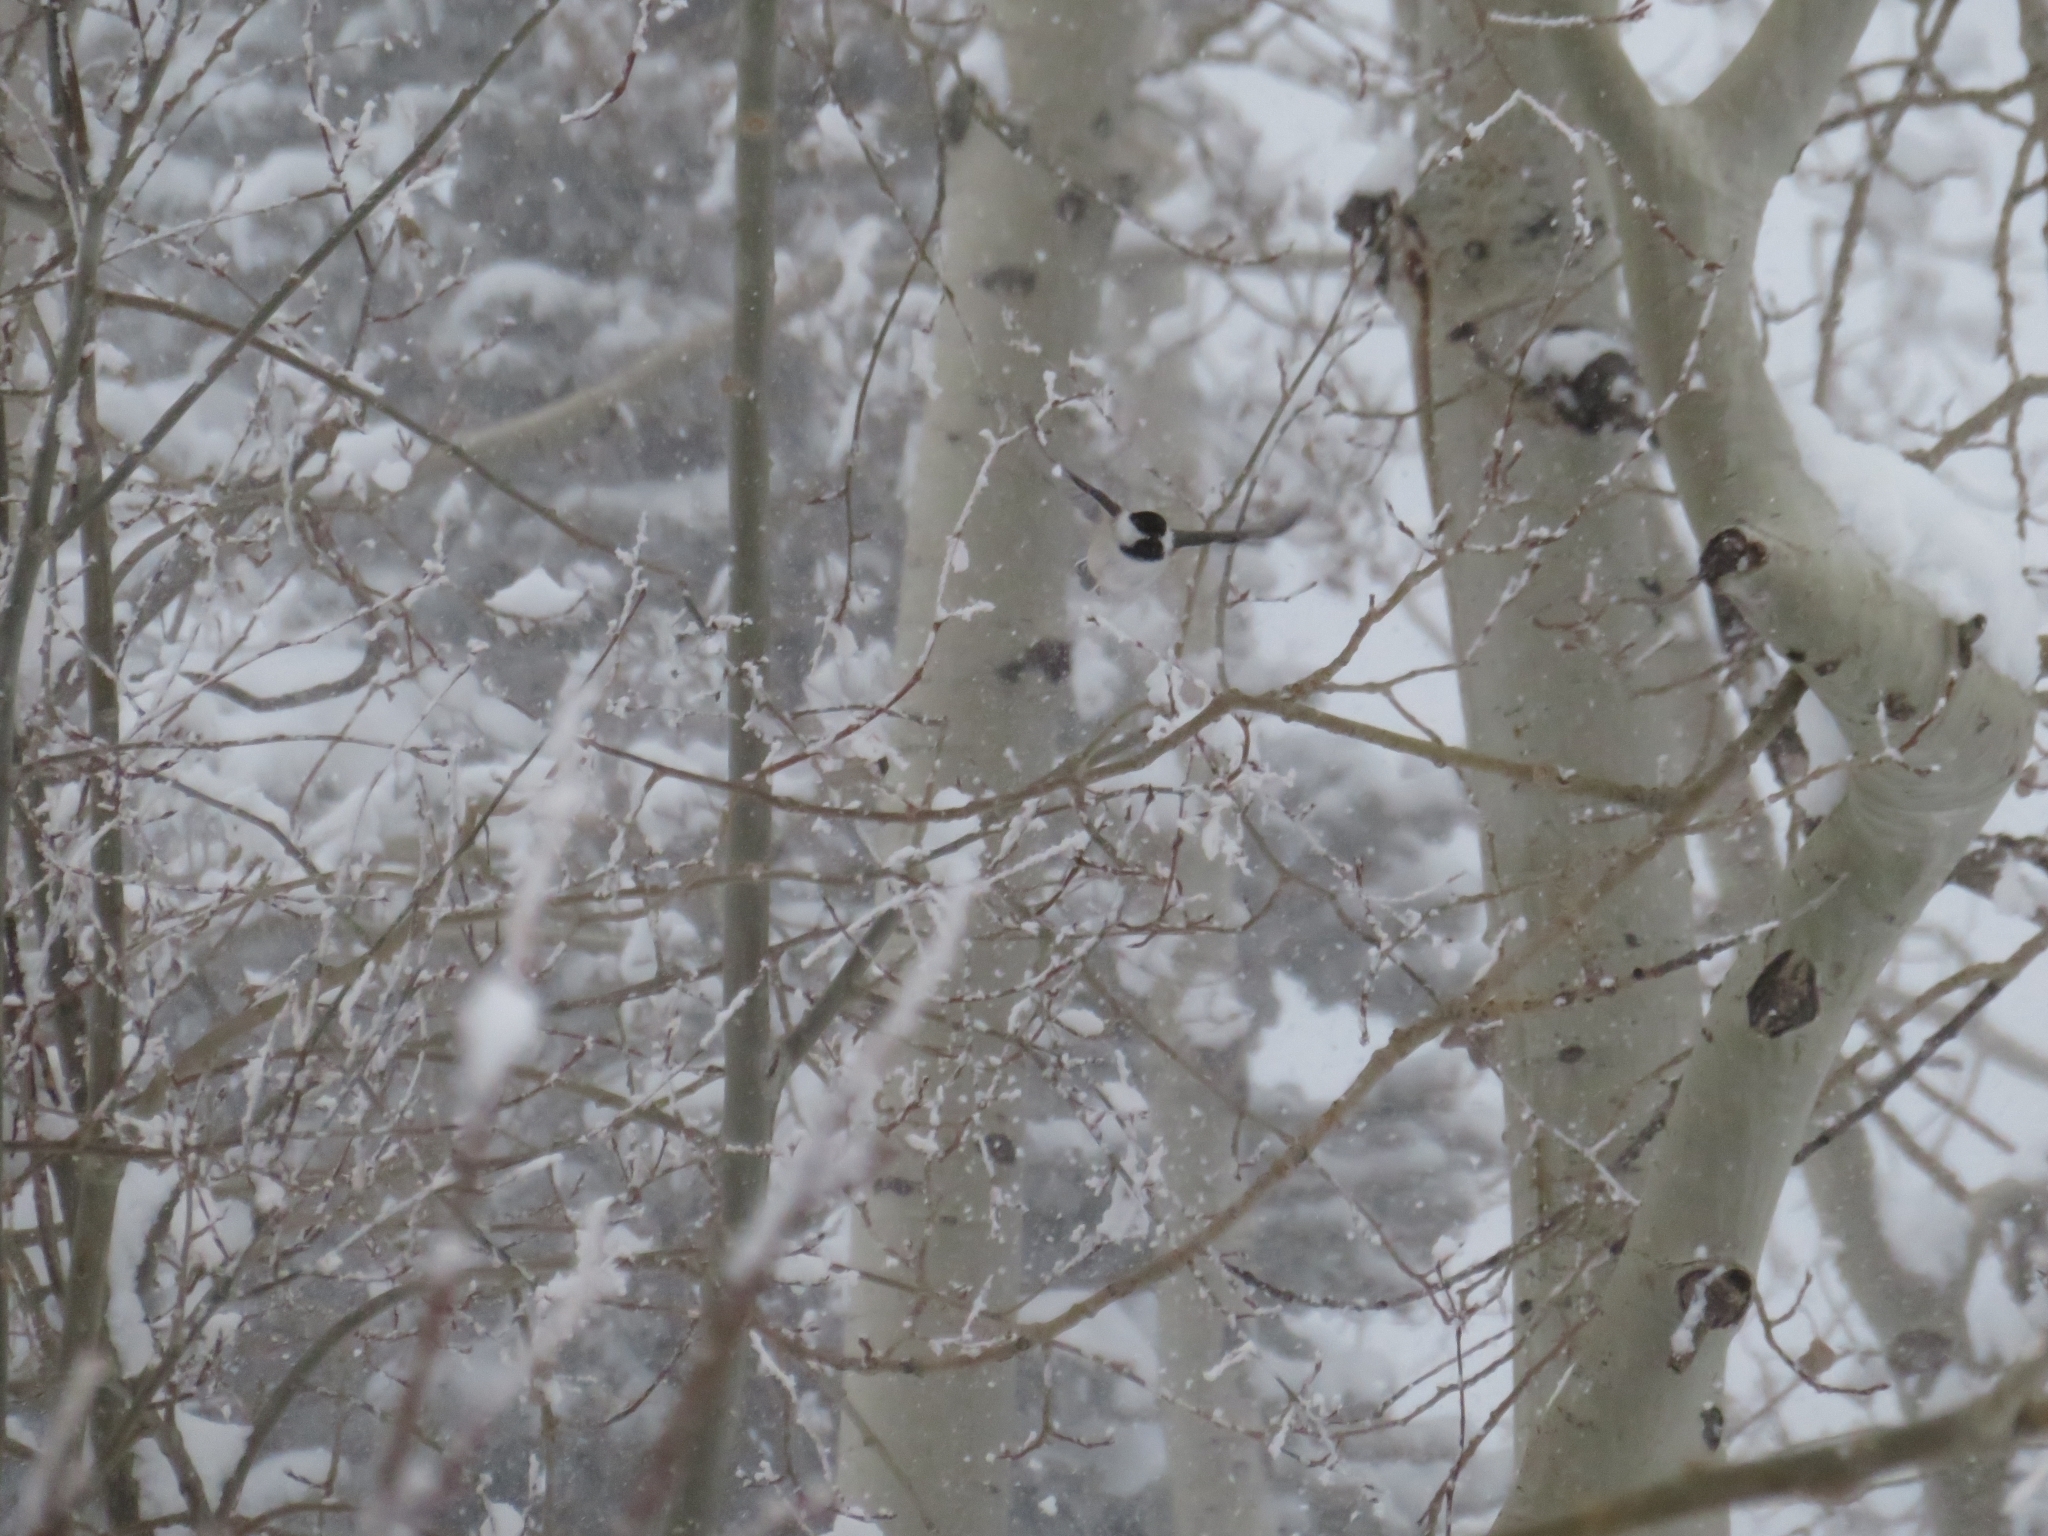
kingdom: Animalia
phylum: Chordata
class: Aves
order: Passeriformes
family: Paridae
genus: Poecile
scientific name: Poecile atricapillus
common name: Black-capped chickadee
